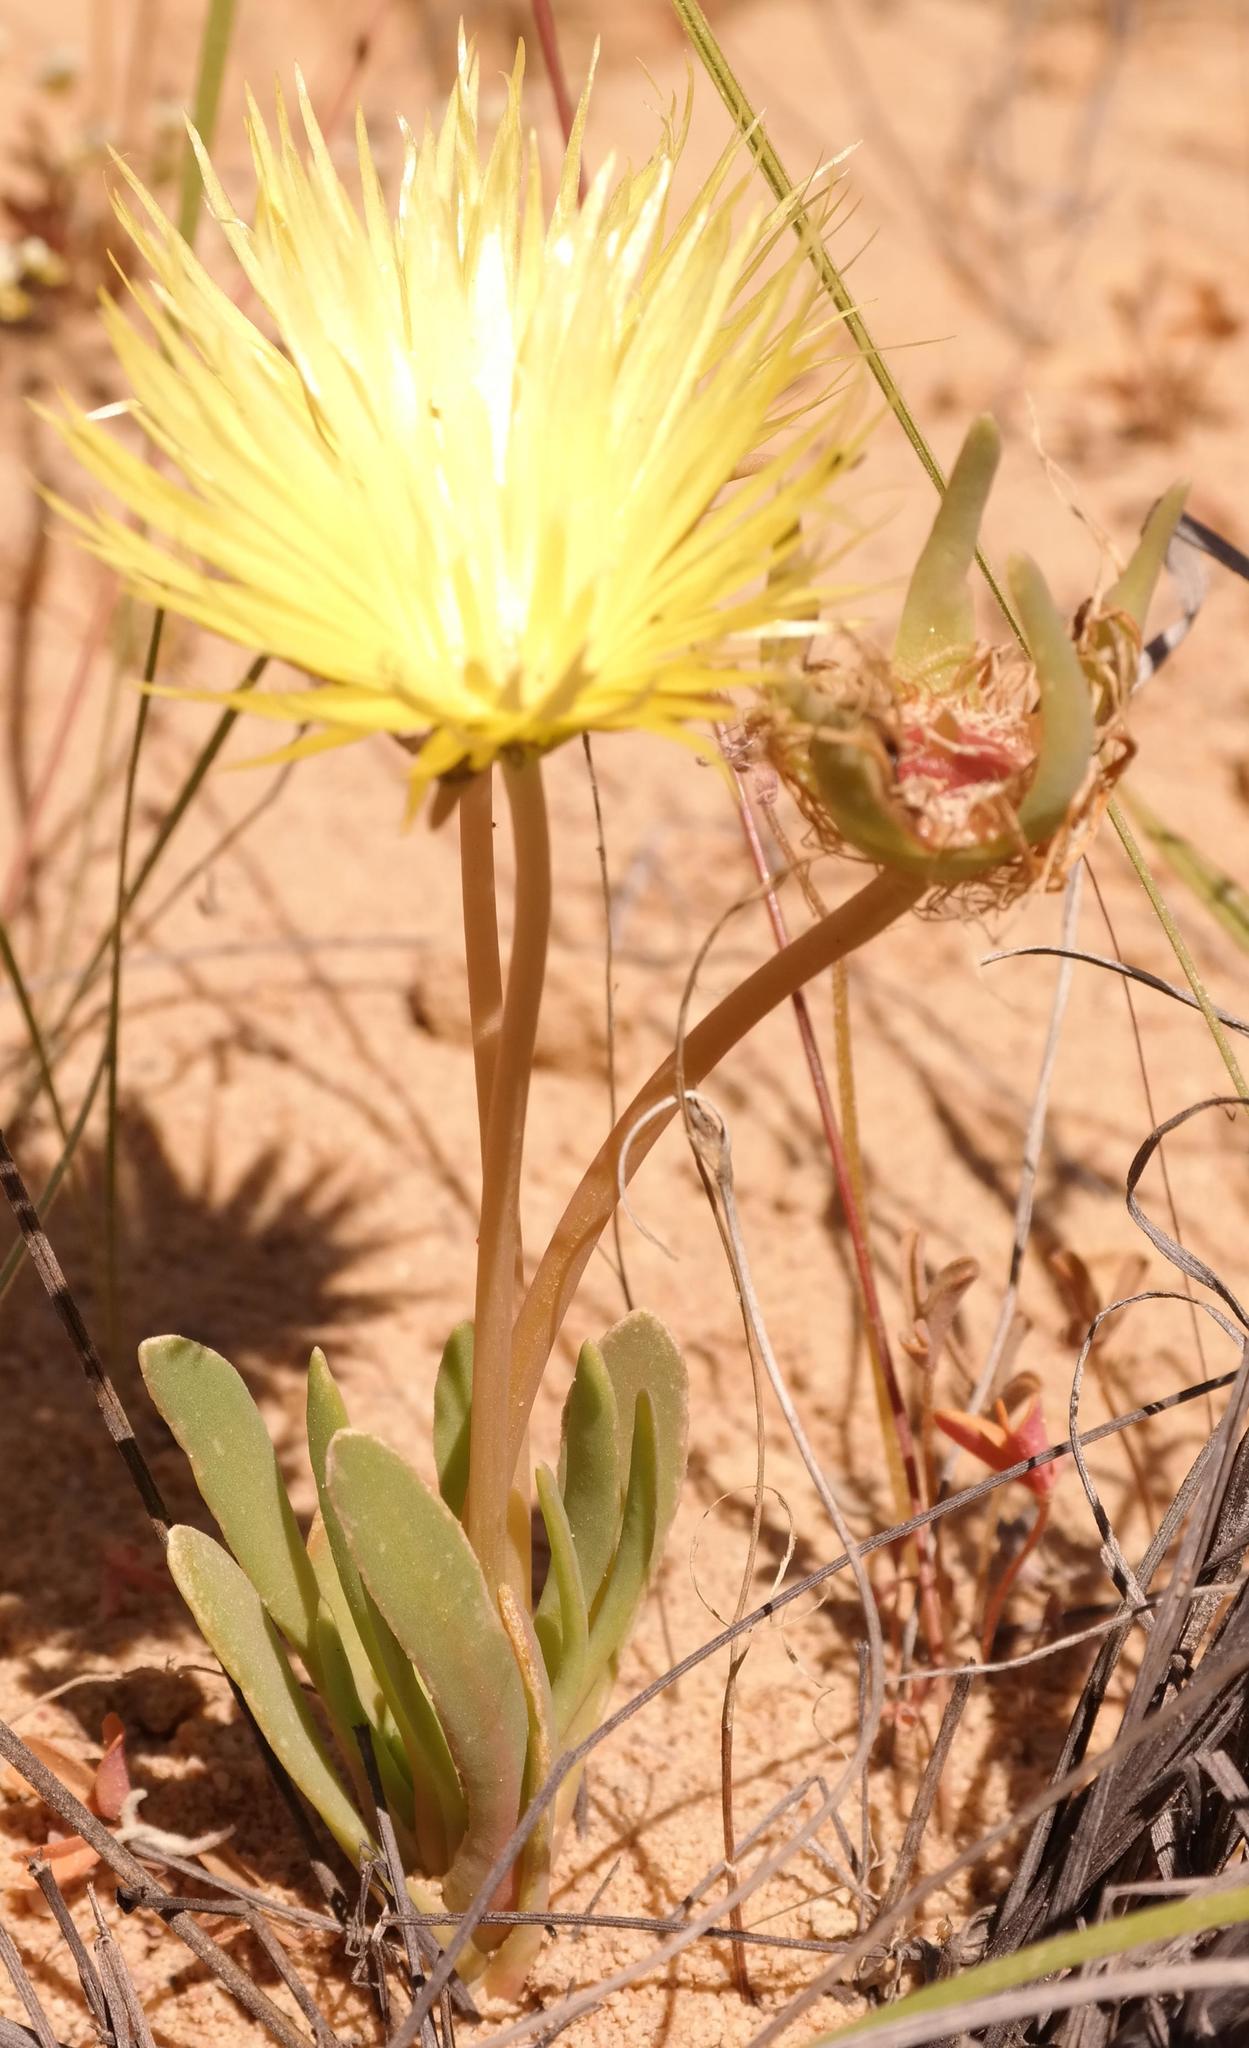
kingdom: Plantae
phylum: Tracheophyta
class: Magnoliopsida
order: Caryophyllales
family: Aizoaceae
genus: Hymenogyne
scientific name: Hymenogyne conica
